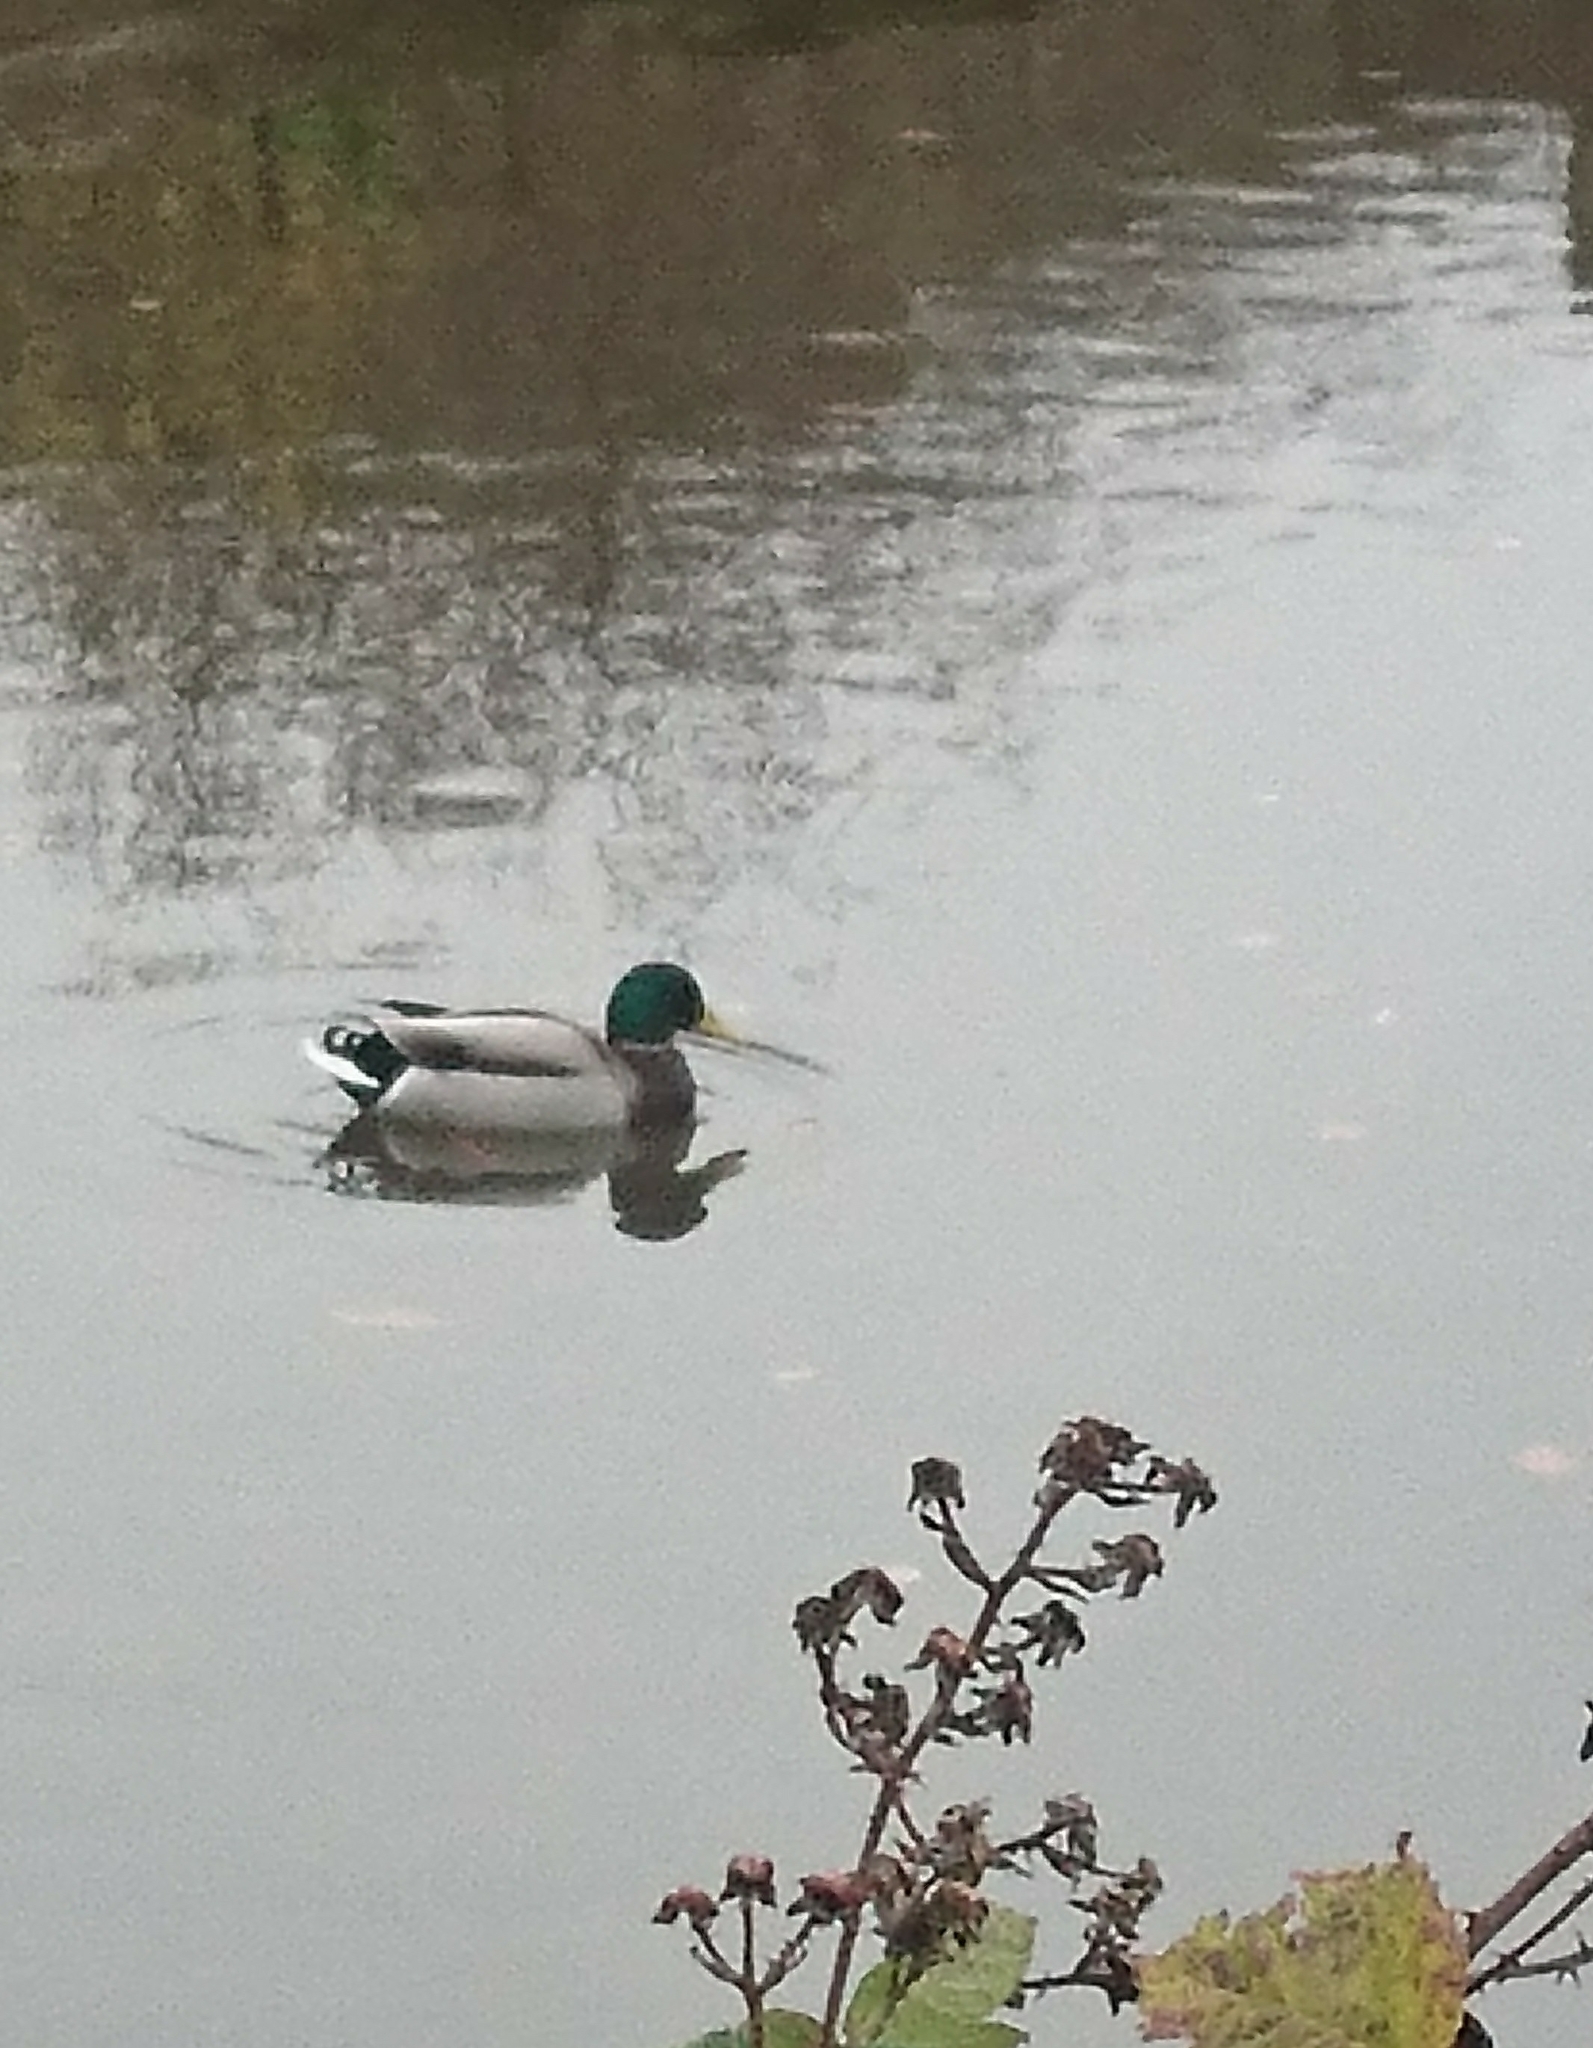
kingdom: Animalia
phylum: Chordata
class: Aves
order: Anseriformes
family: Anatidae
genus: Anas
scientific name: Anas platyrhynchos
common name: Mallard
